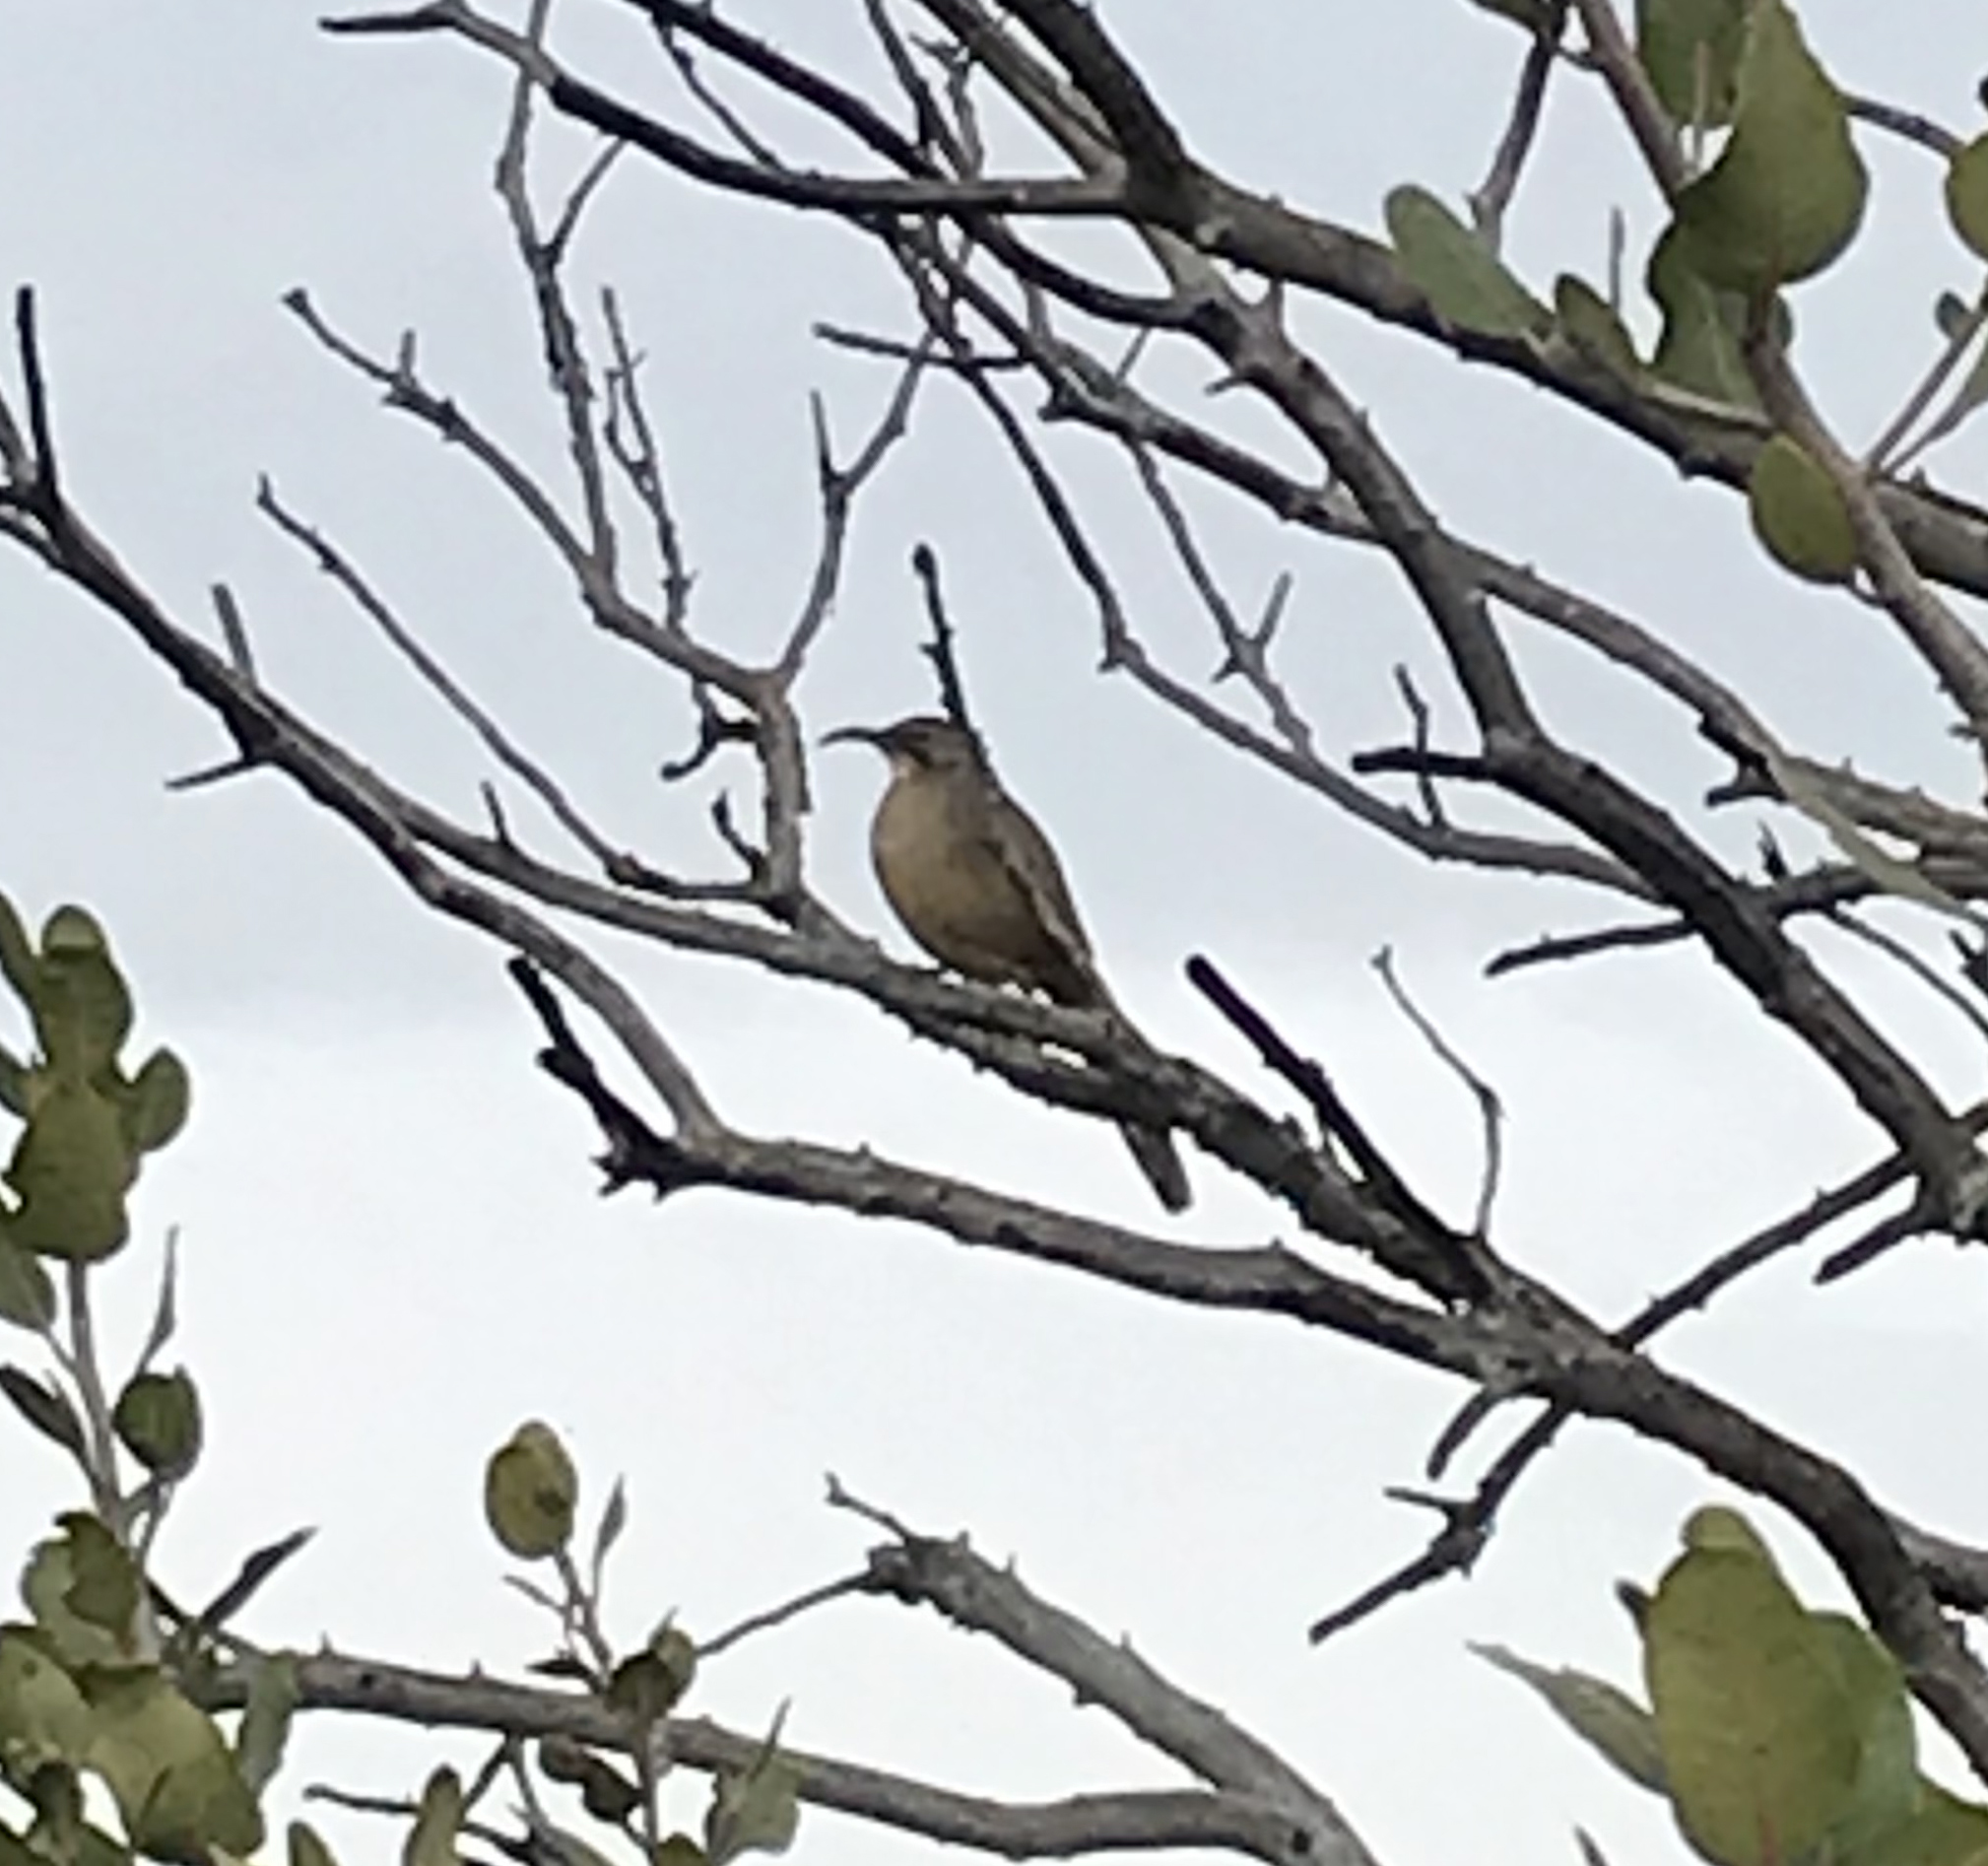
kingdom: Animalia
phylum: Chordata
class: Aves
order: Passeriformes
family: Mimidae
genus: Toxostoma
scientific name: Toxostoma redivivum
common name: California thrasher
